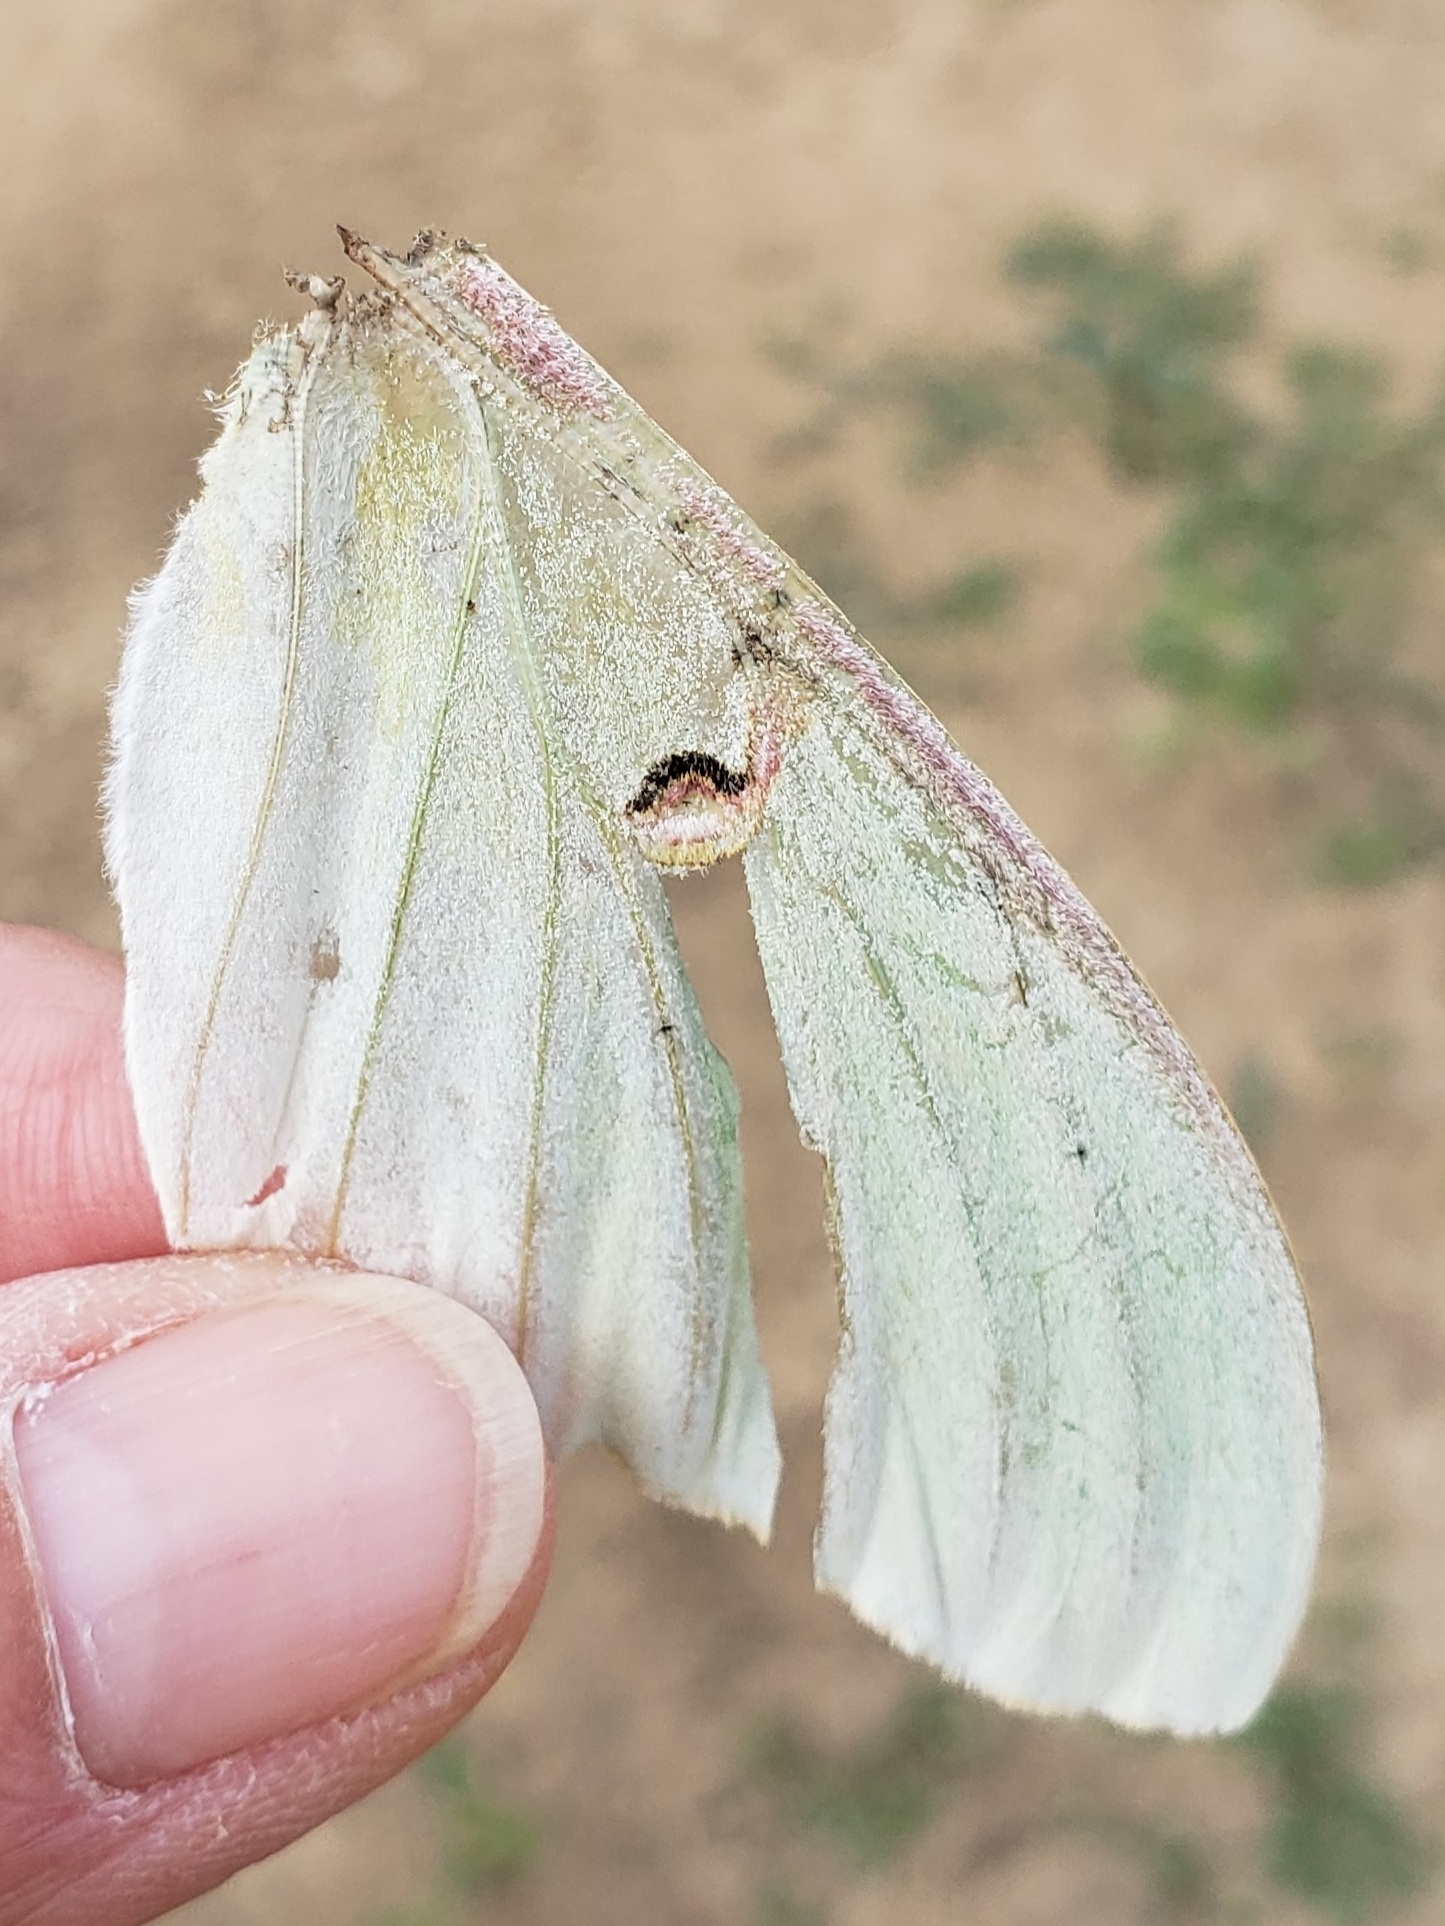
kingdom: Animalia
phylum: Arthropoda
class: Insecta
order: Lepidoptera
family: Saturniidae
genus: Actias
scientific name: Actias luna
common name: Luna moth
